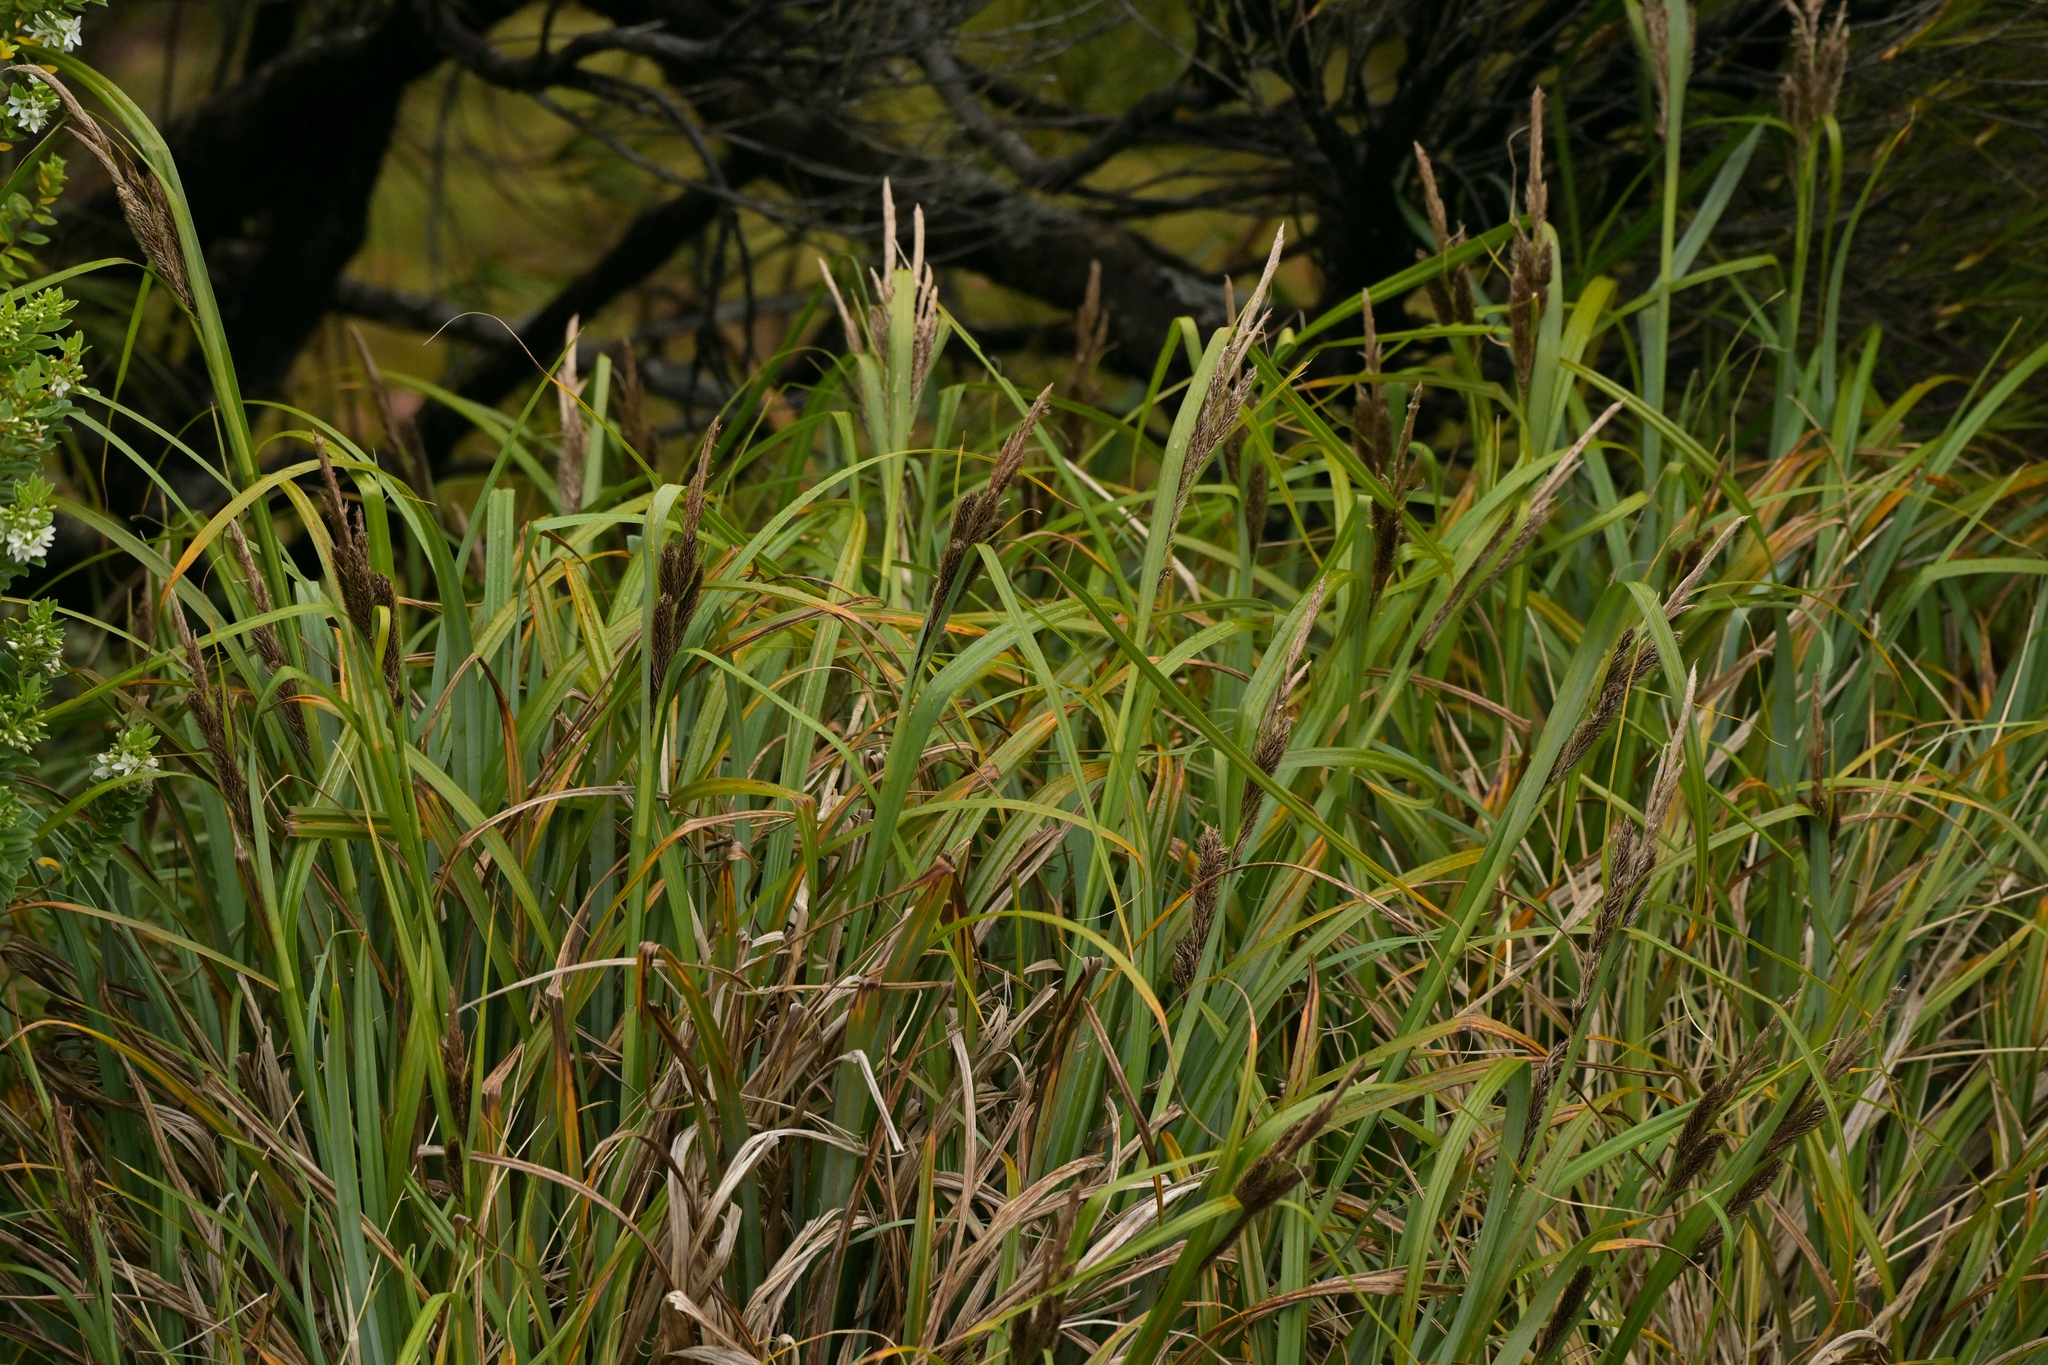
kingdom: Plantae
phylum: Tracheophyta
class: Liliopsida
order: Poales
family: Cyperaceae
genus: Carex
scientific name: Carex trifida
